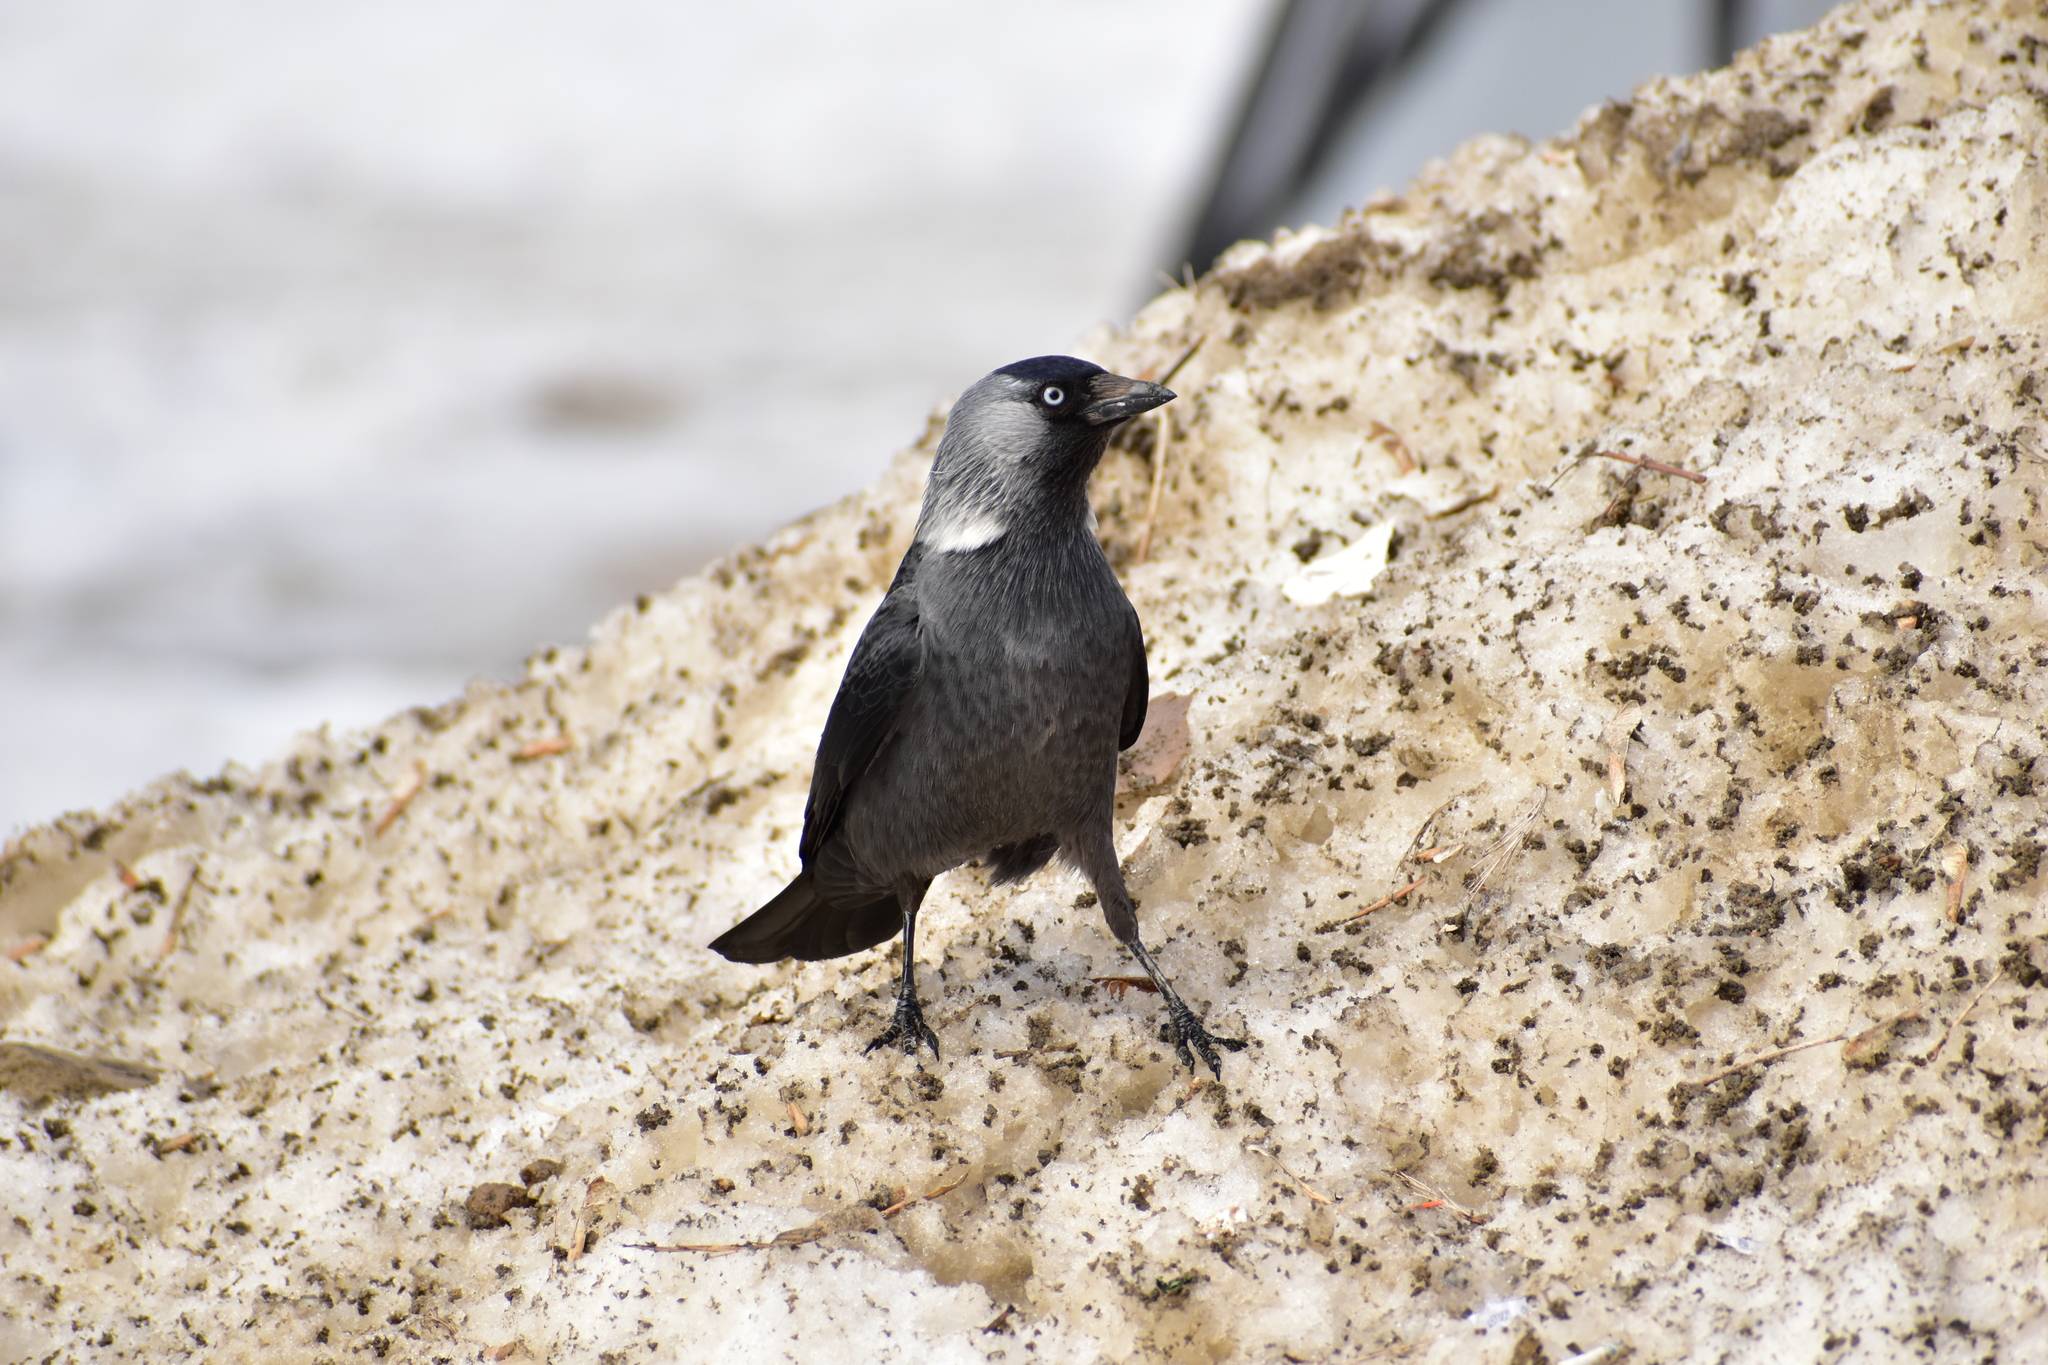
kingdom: Animalia
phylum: Chordata
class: Aves
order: Passeriformes
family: Corvidae
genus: Coloeus
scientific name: Coloeus monedula
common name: Western jackdaw
